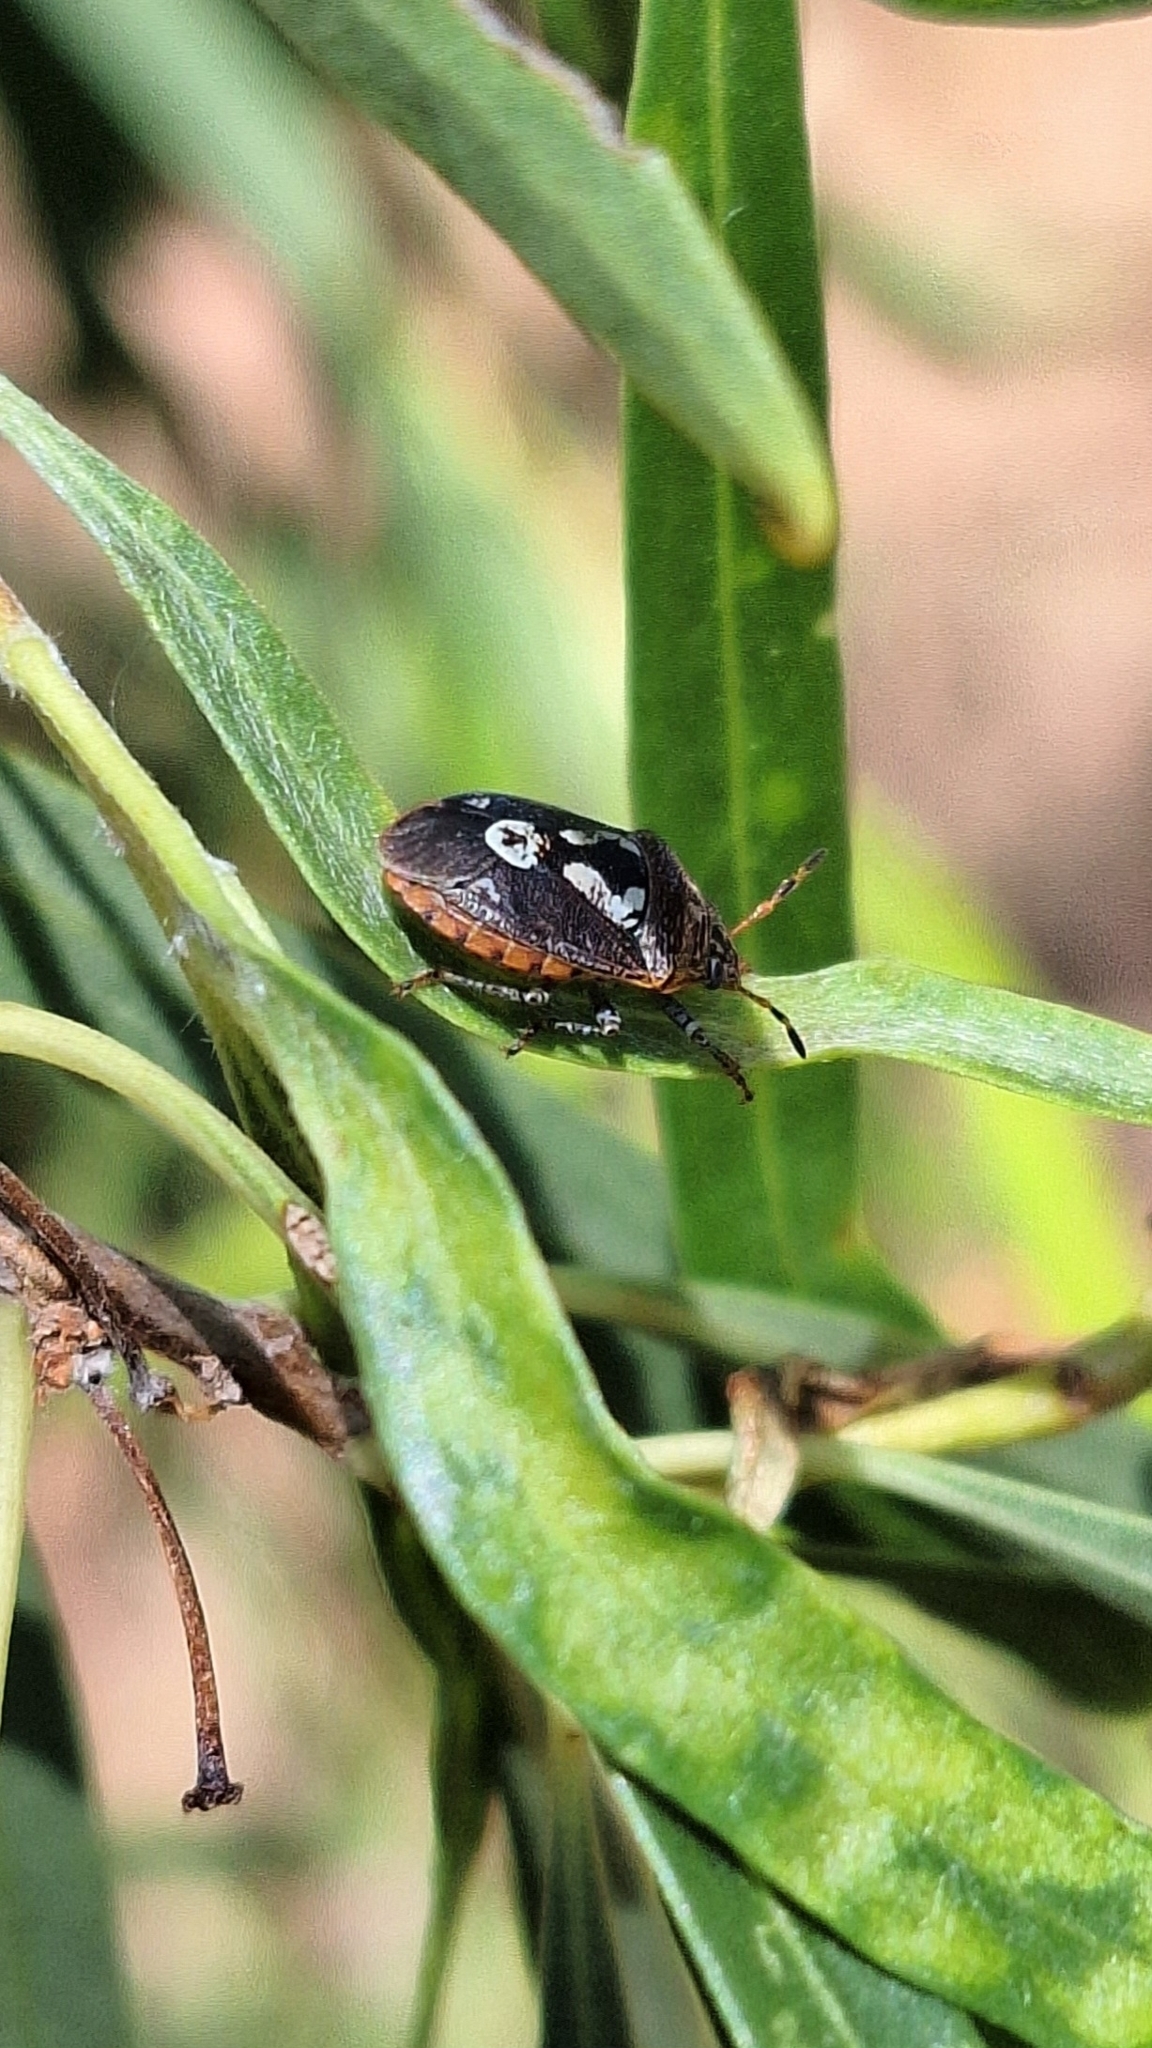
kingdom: Animalia
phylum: Arthropoda
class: Insecta
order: Hemiptera
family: Pentatomidae
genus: Pseudapines
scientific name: Pseudapines
